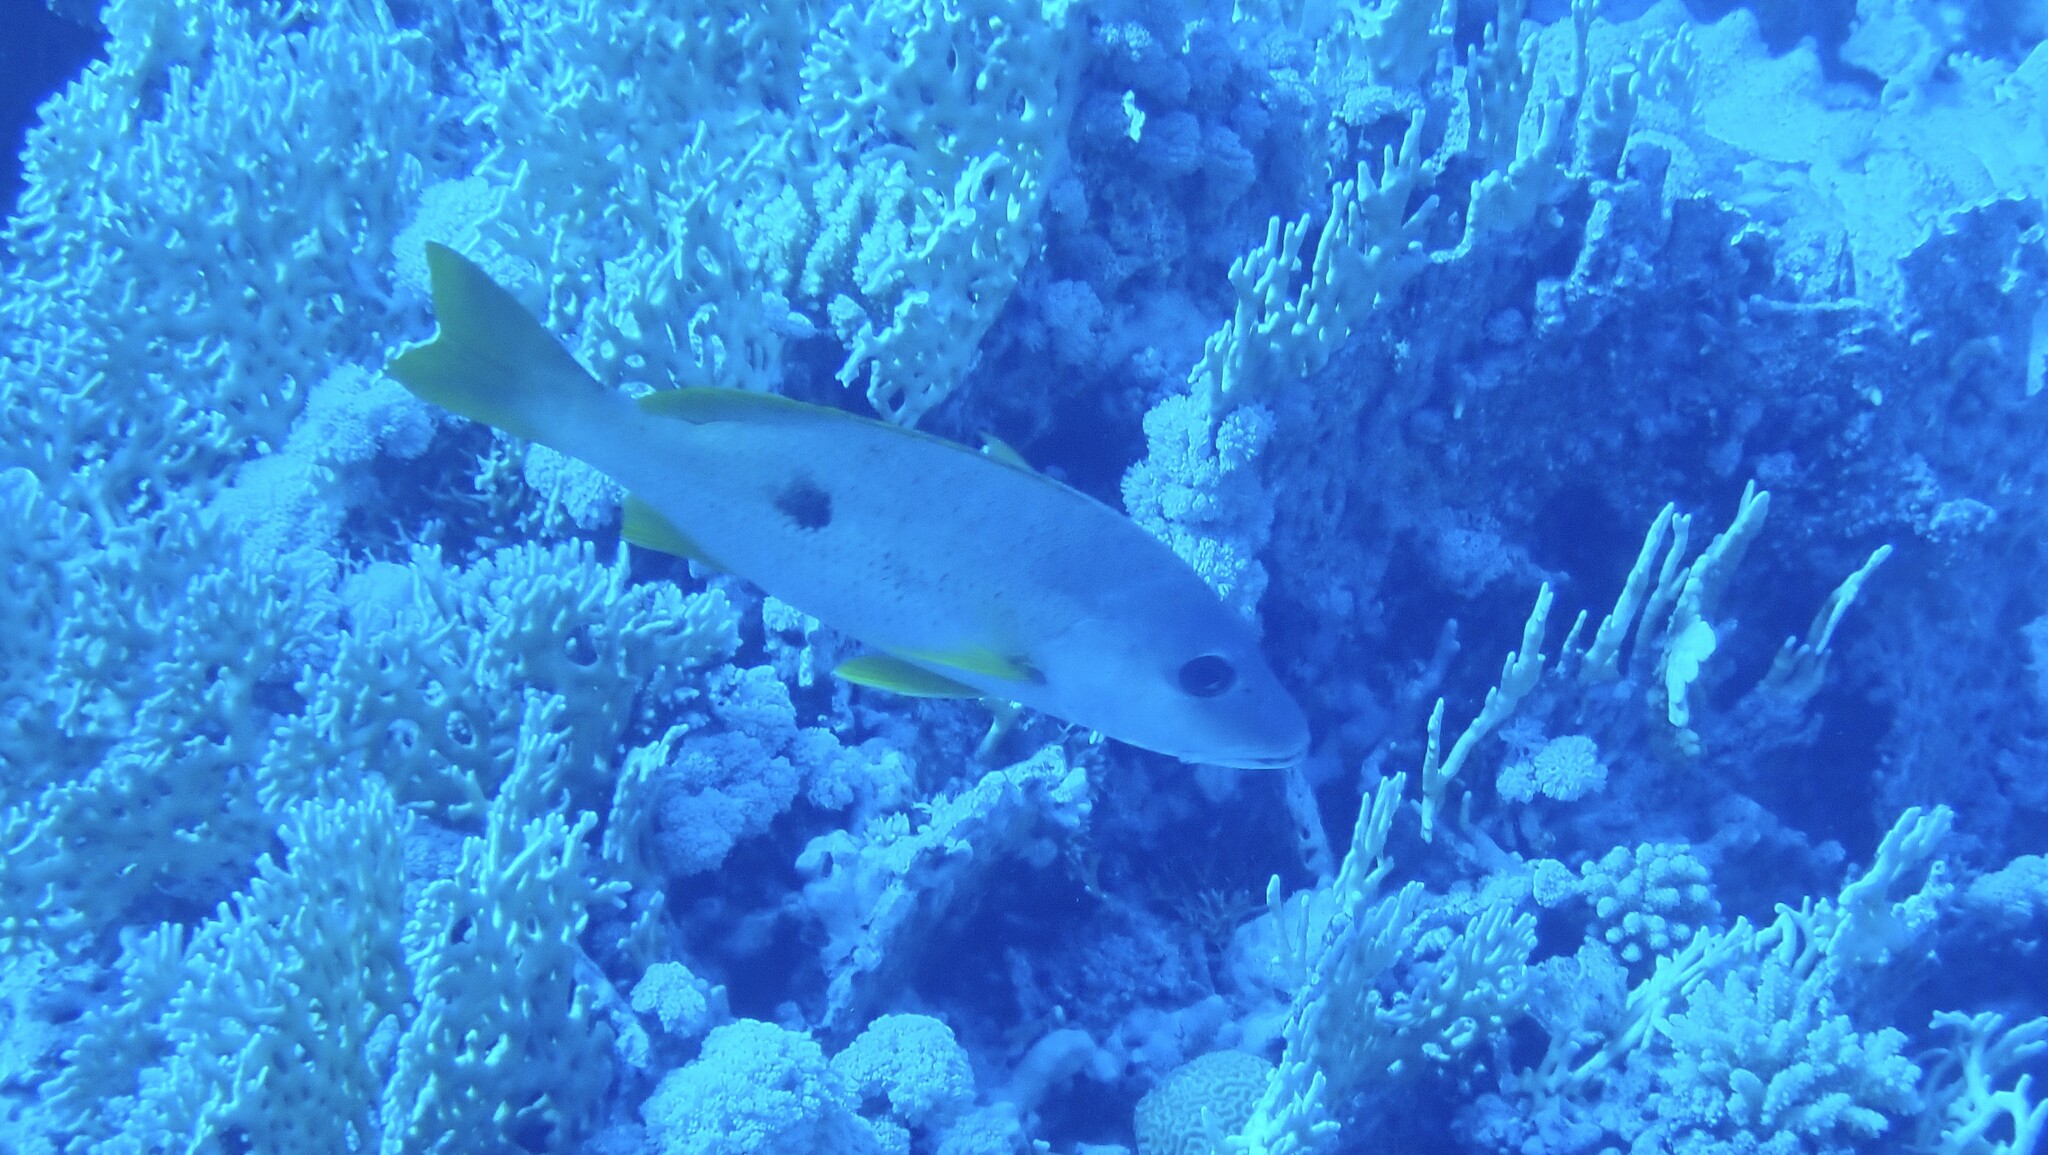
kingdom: Animalia
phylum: Chordata
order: Perciformes
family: Lutjanidae
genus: Lutjanus
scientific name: Lutjanus monostigma
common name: Onespot snapper
